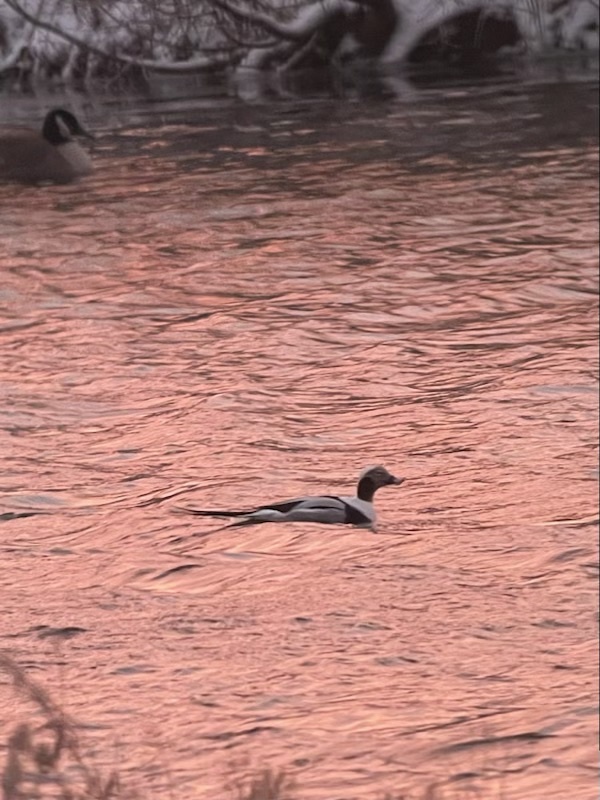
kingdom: Animalia
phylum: Chordata
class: Aves
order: Anseriformes
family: Anatidae
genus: Clangula
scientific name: Clangula hyemalis
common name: Long-tailed duck
